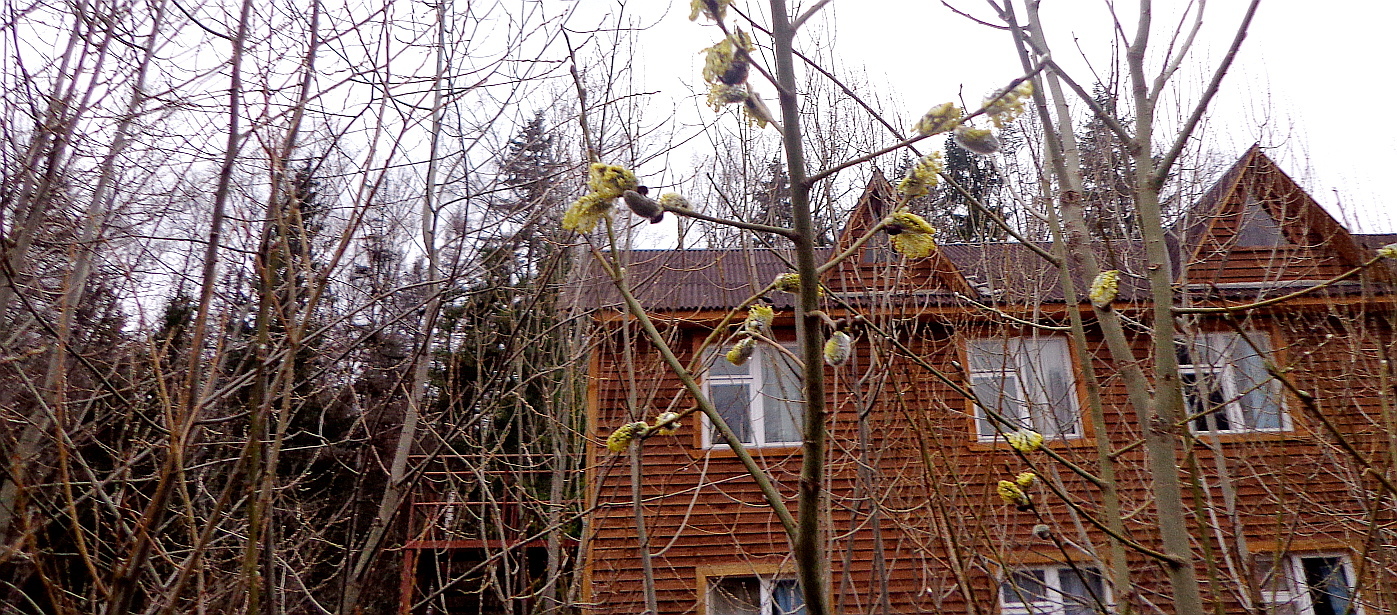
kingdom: Plantae
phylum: Tracheophyta
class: Magnoliopsida
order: Malpighiales
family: Salicaceae
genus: Salix
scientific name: Salix caprea
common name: Goat willow
